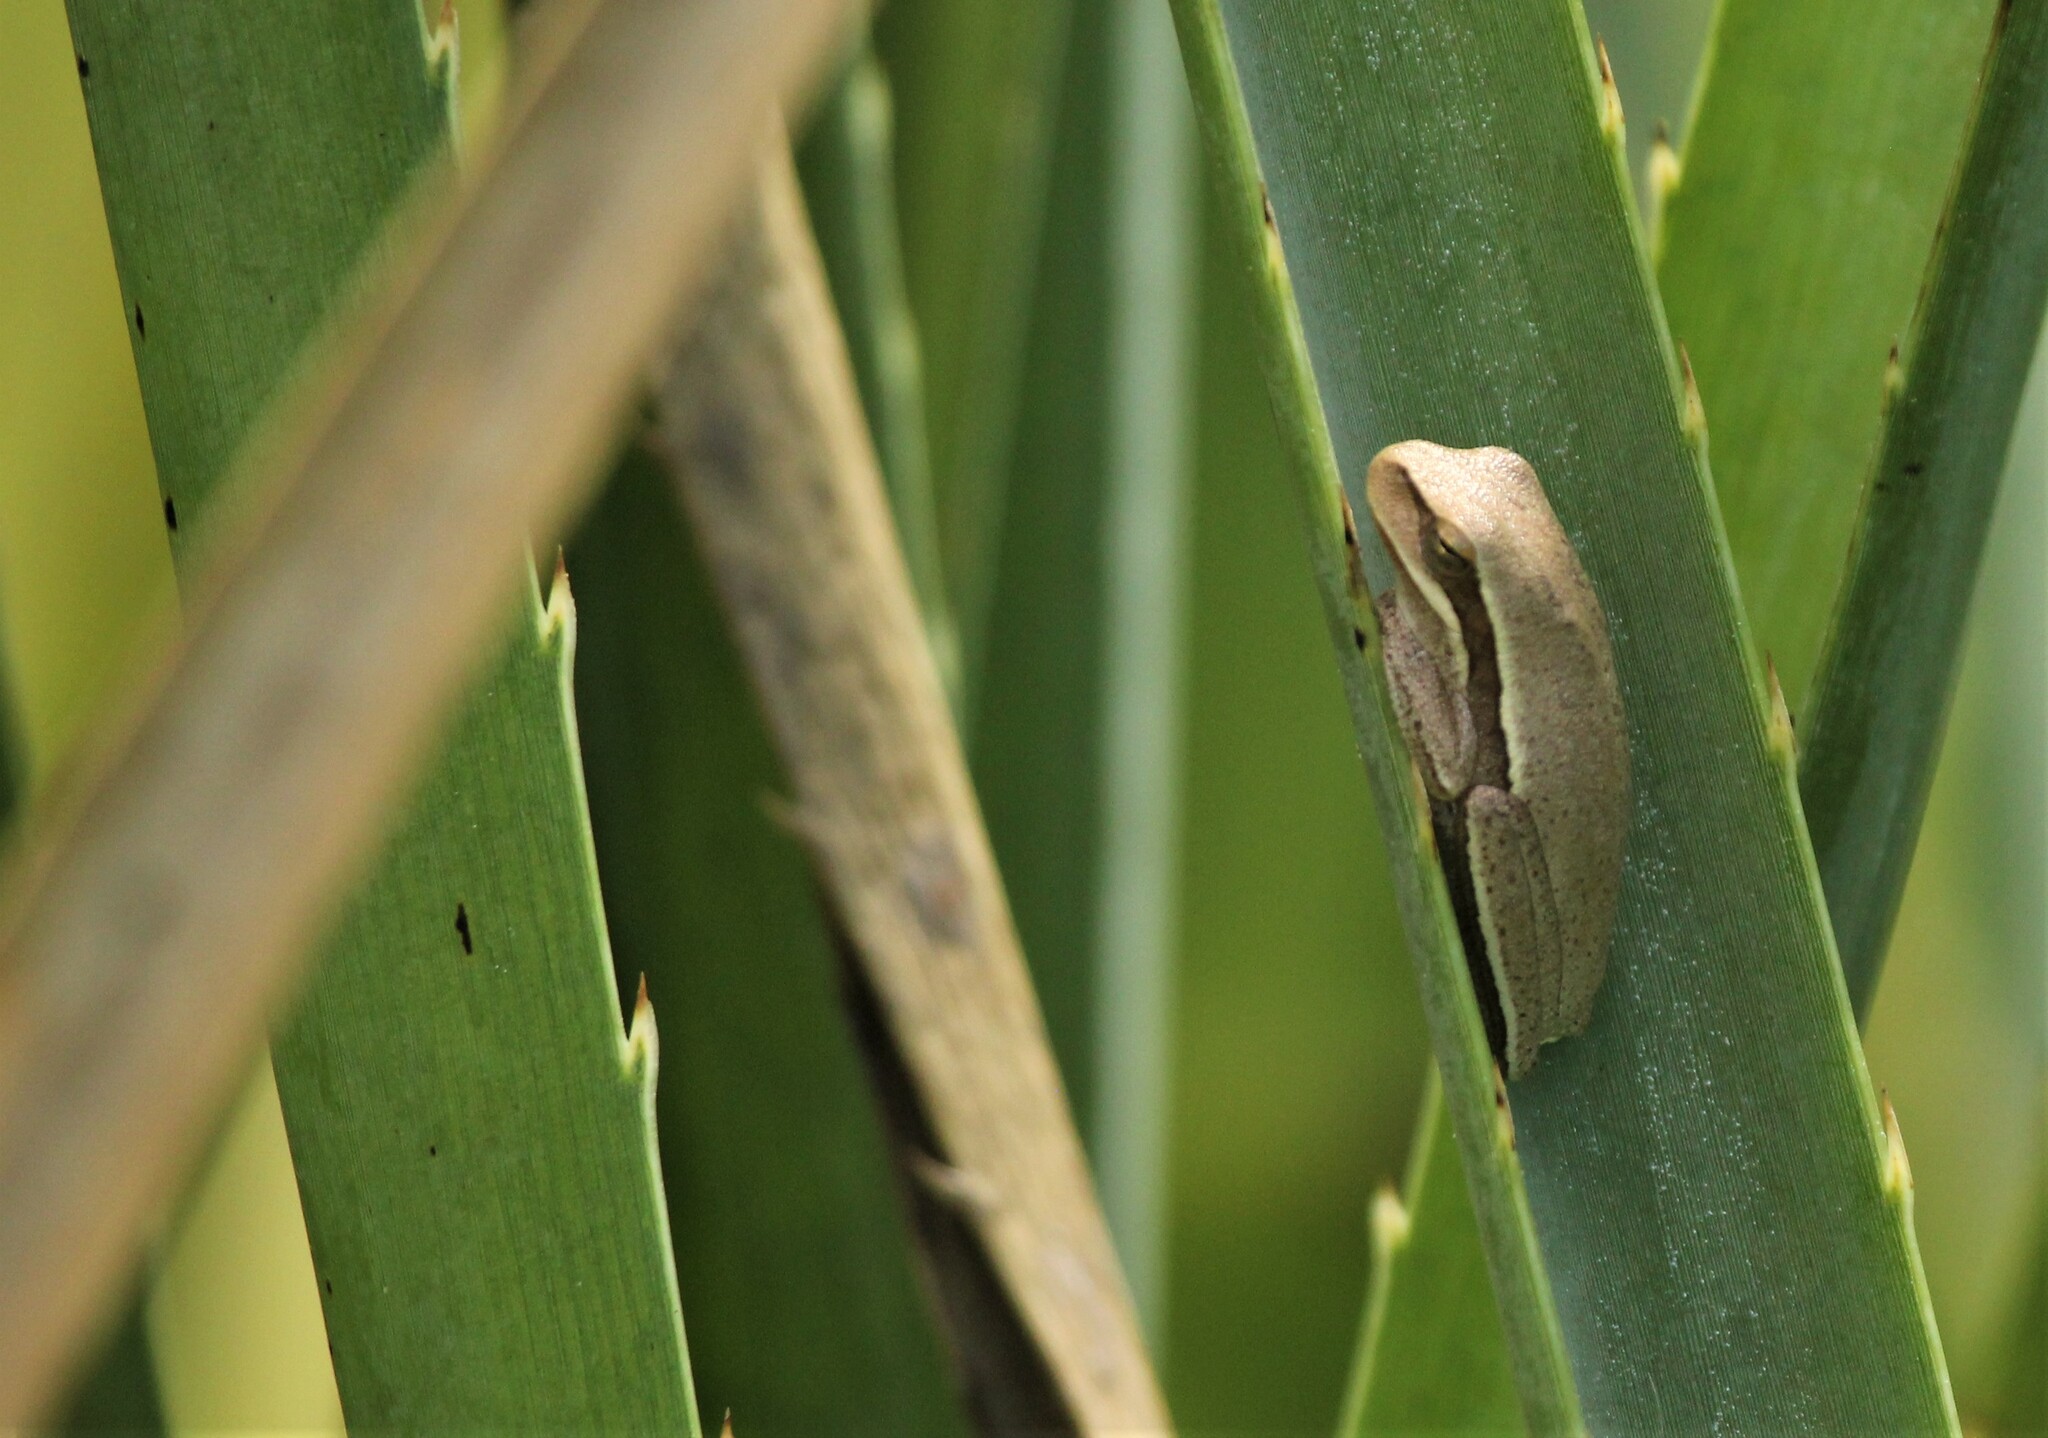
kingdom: Animalia
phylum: Chordata
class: Amphibia
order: Anura
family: Hylidae
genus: Boana
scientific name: Boana pulchella
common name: Montevideo treefrog
